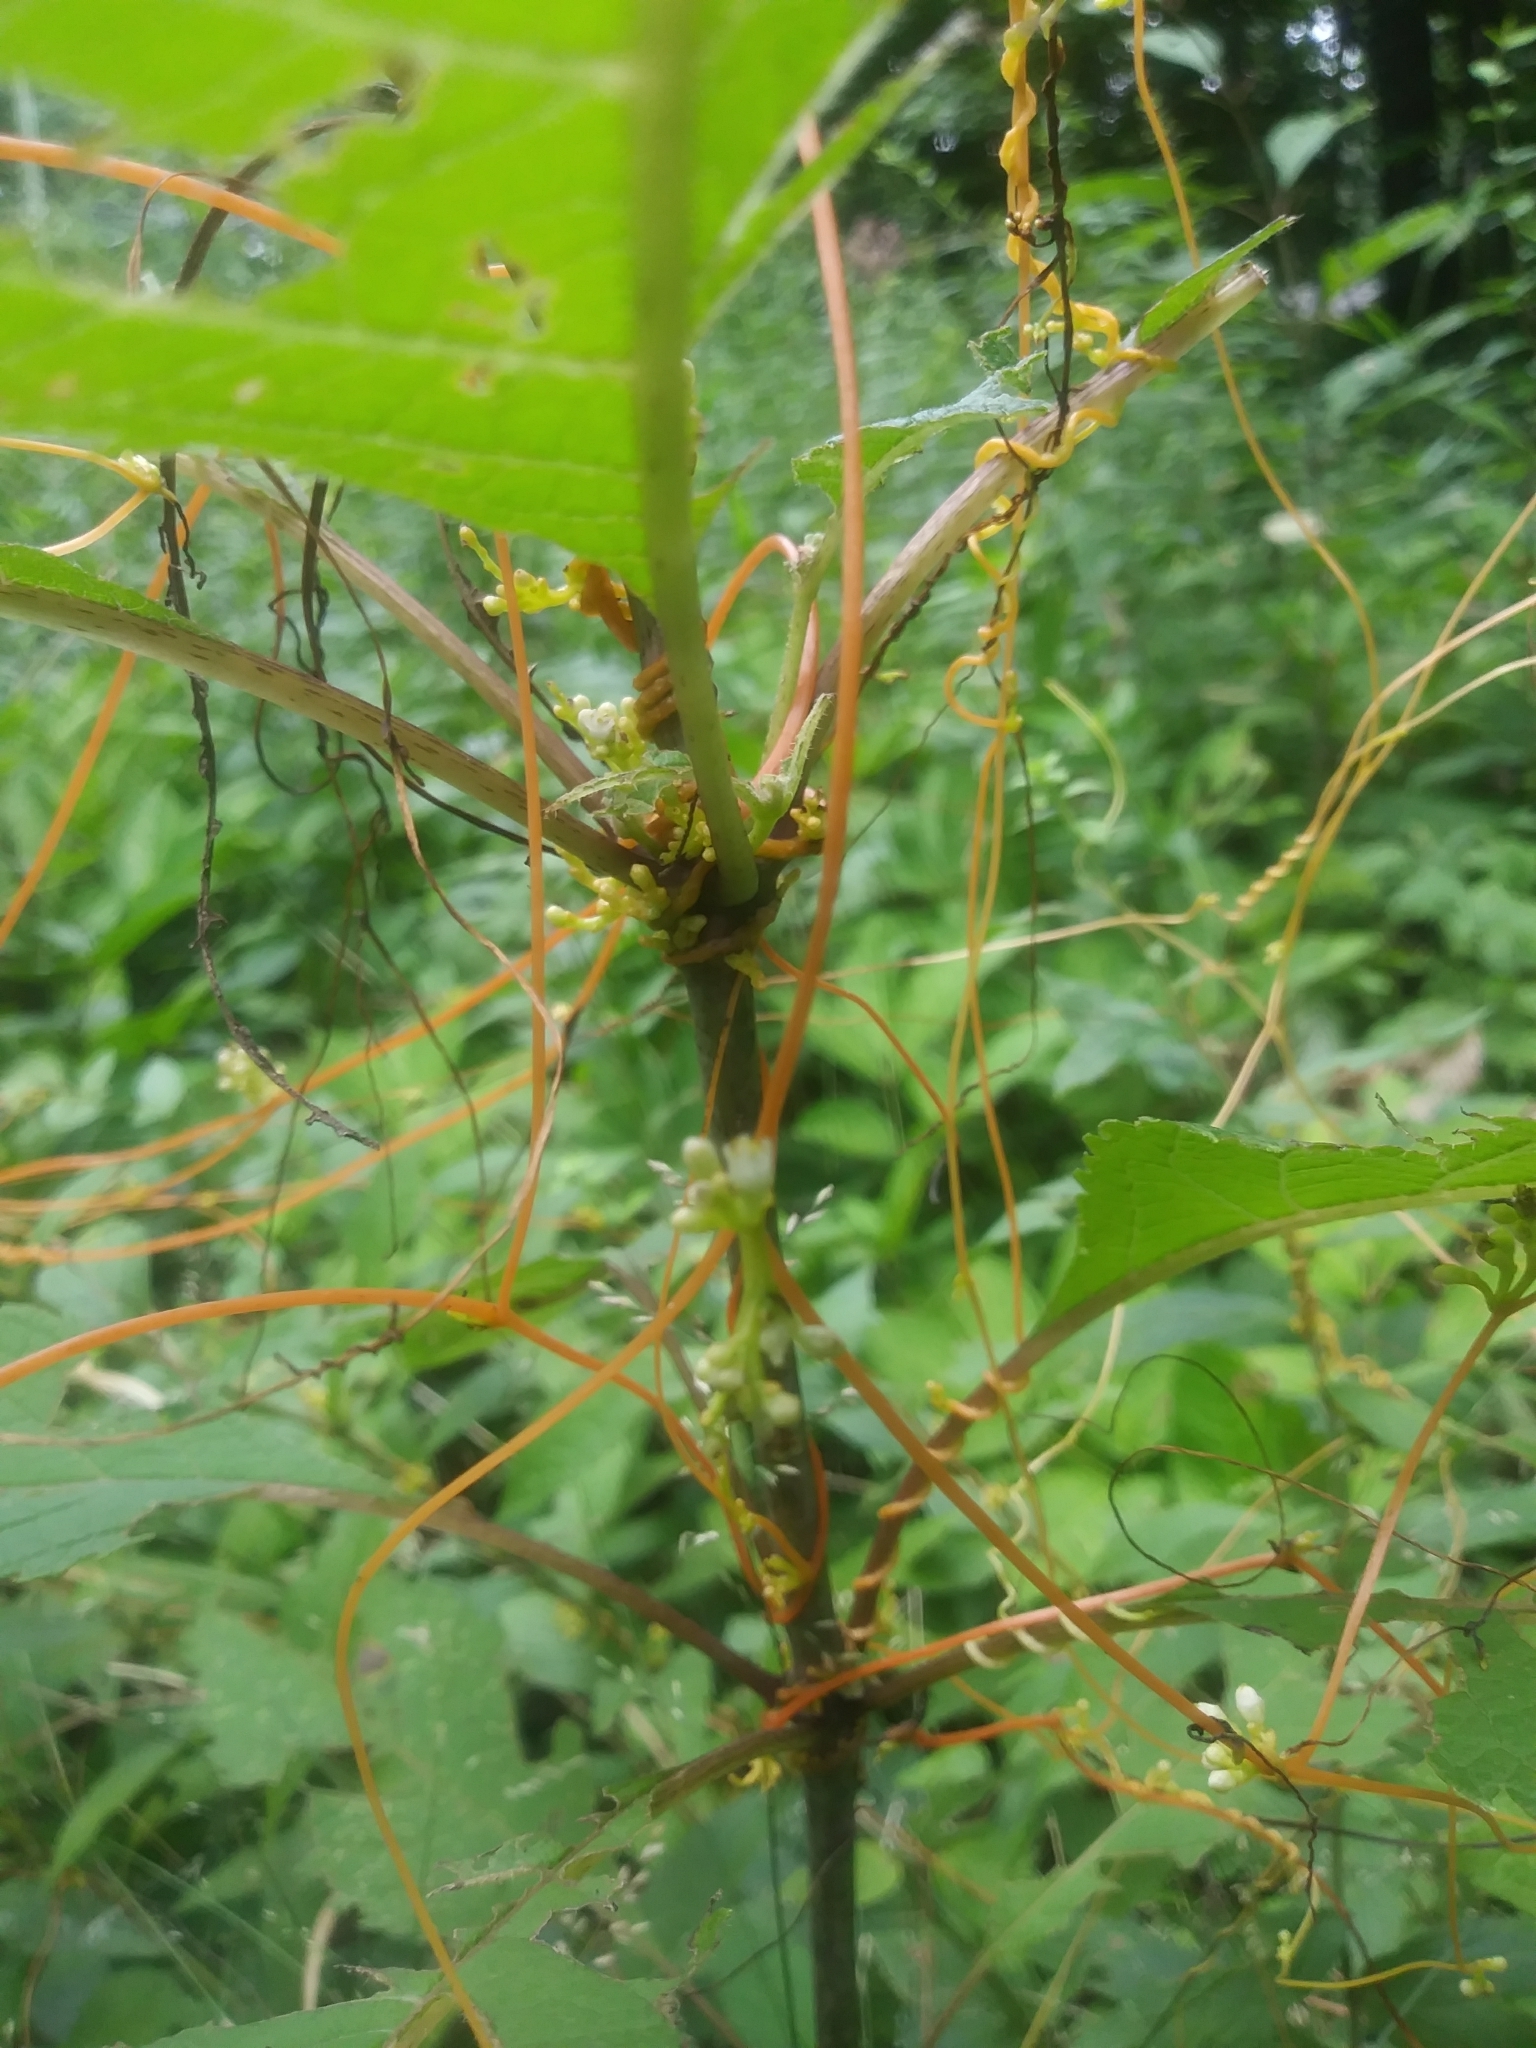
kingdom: Plantae
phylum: Tracheophyta
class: Magnoliopsida
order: Solanales
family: Convolvulaceae
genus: Cuscuta
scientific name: Cuscuta gronovii
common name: Common dodder
